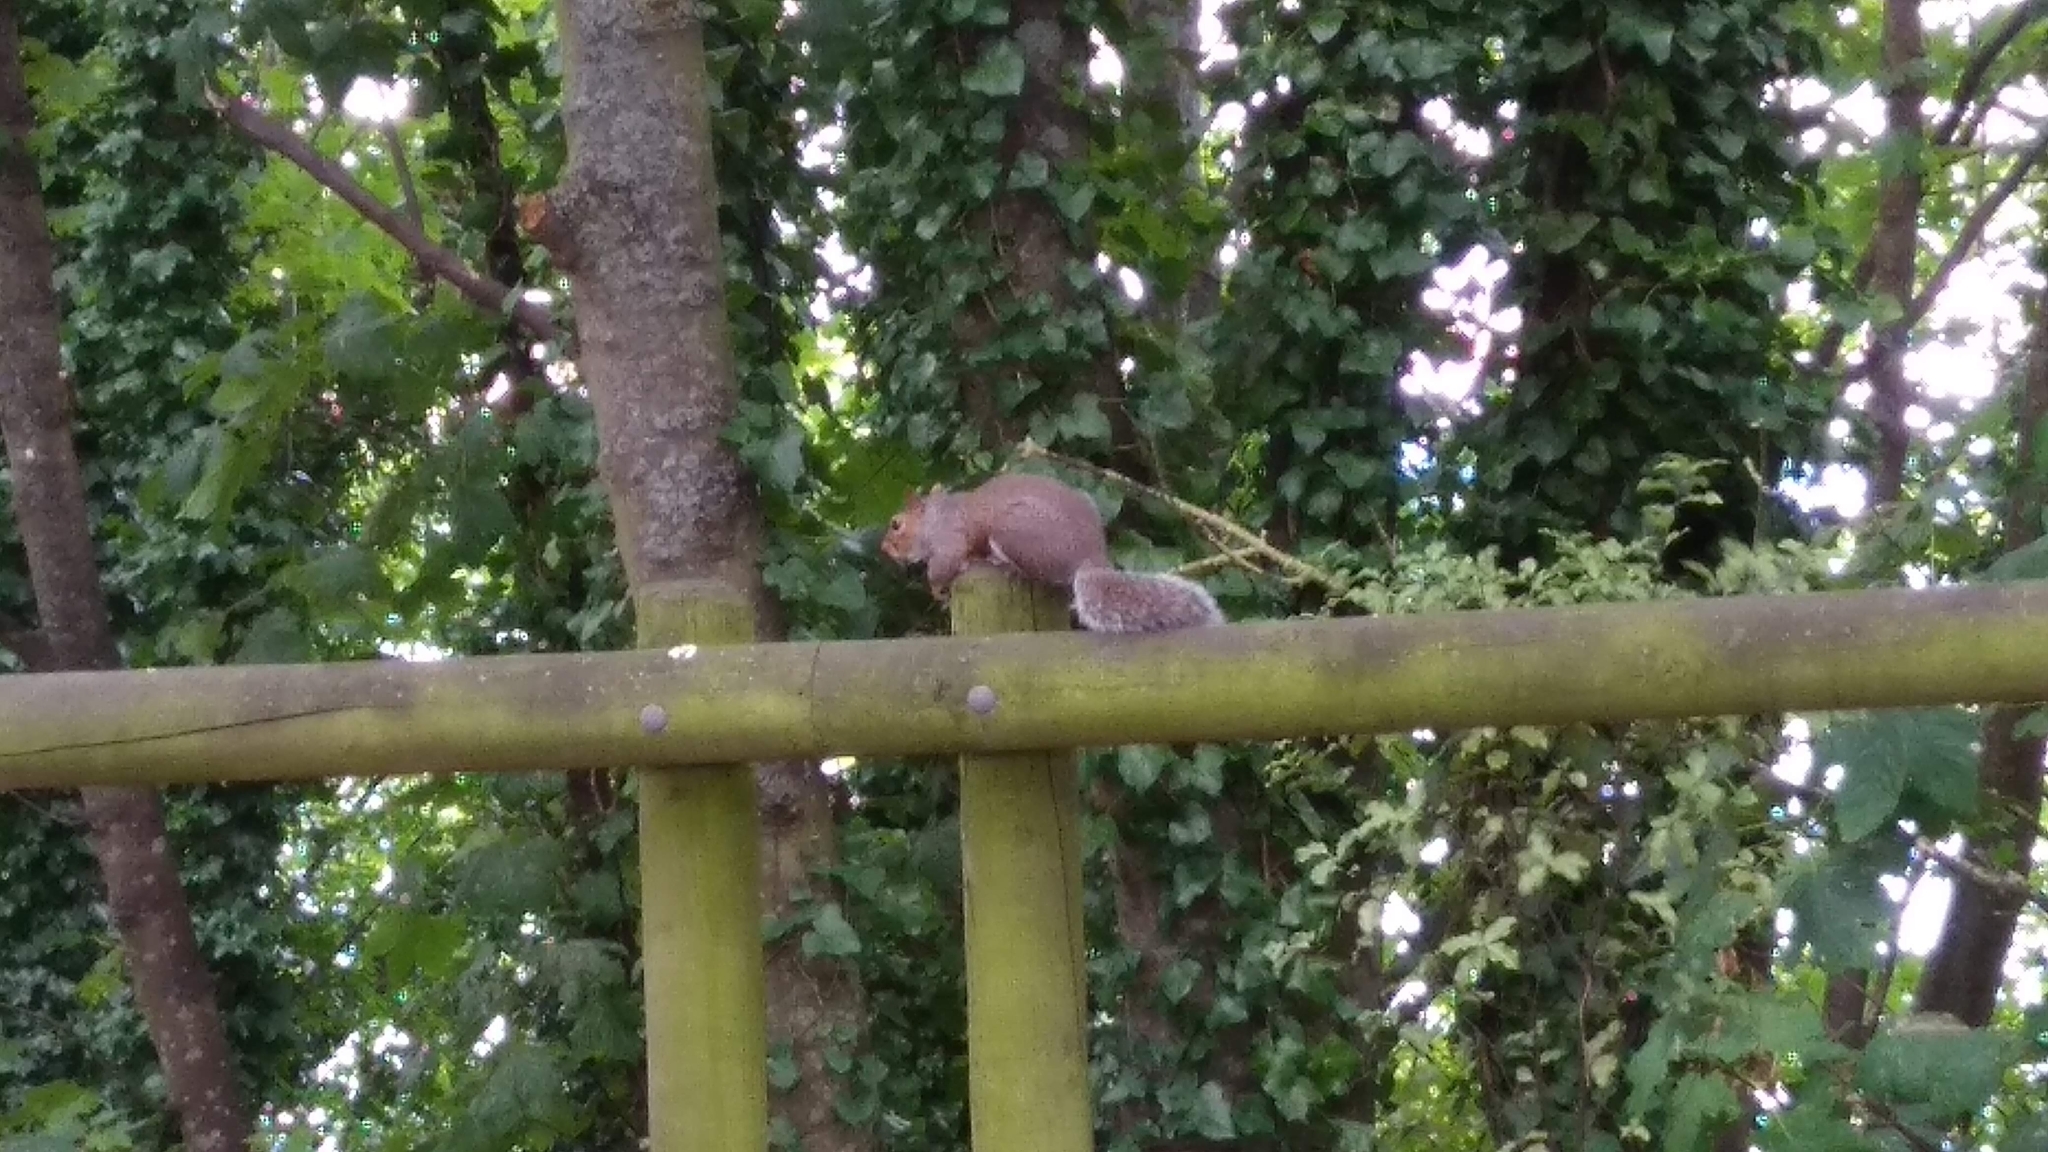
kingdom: Animalia
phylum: Chordata
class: Mammalia
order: Rodentia
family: Sciuridae
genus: Sciurus
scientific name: Sciurus carolinensis
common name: Eastern gray squirrel
